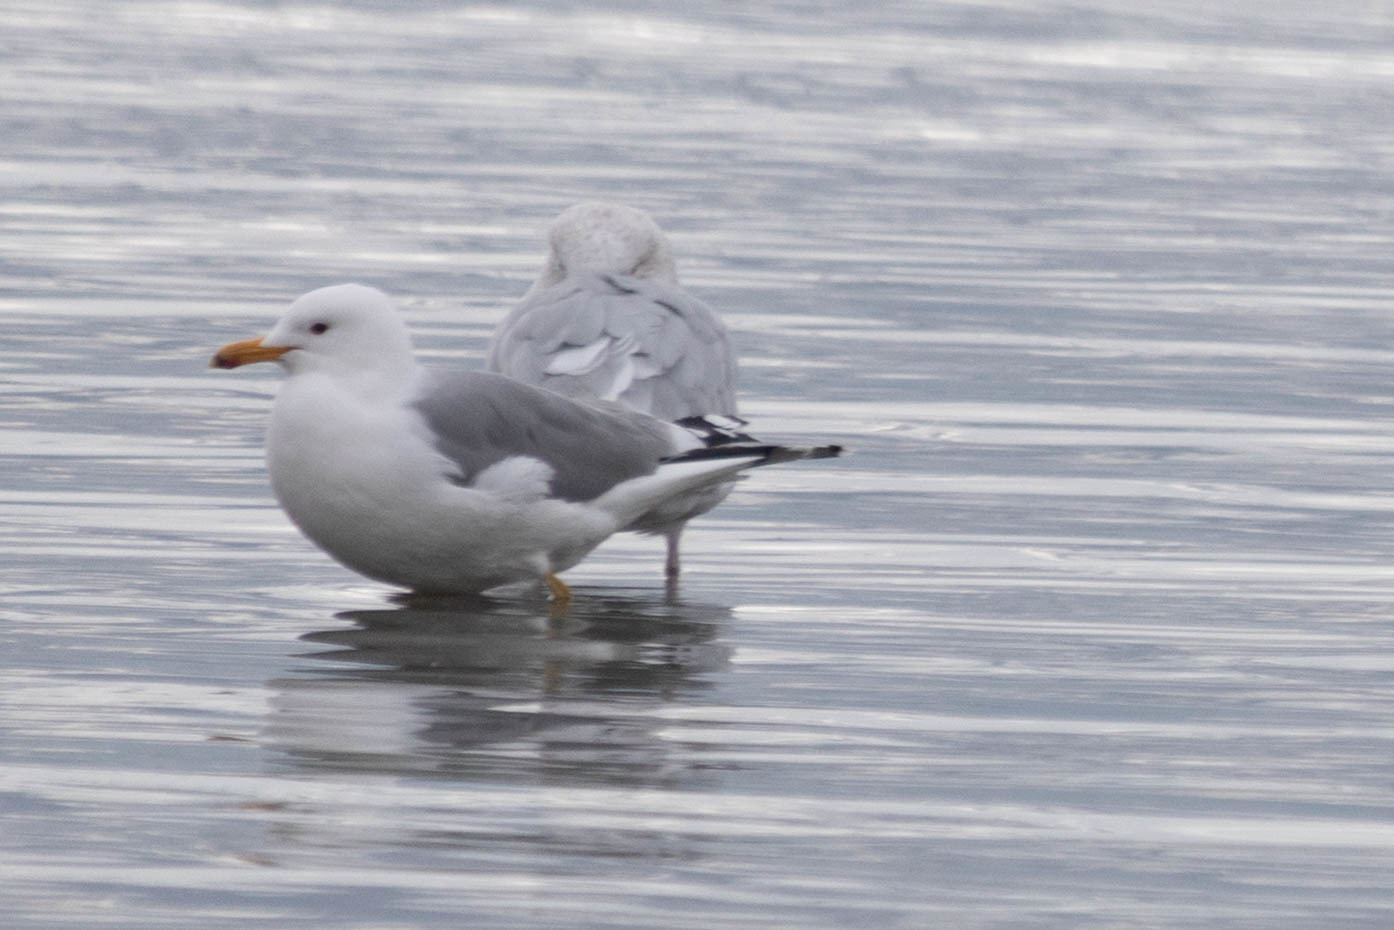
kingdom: Animalia
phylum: Chordata
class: Aves
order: Charadriiformes
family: Laridae
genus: Larus
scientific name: Larus californicus
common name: California gull
